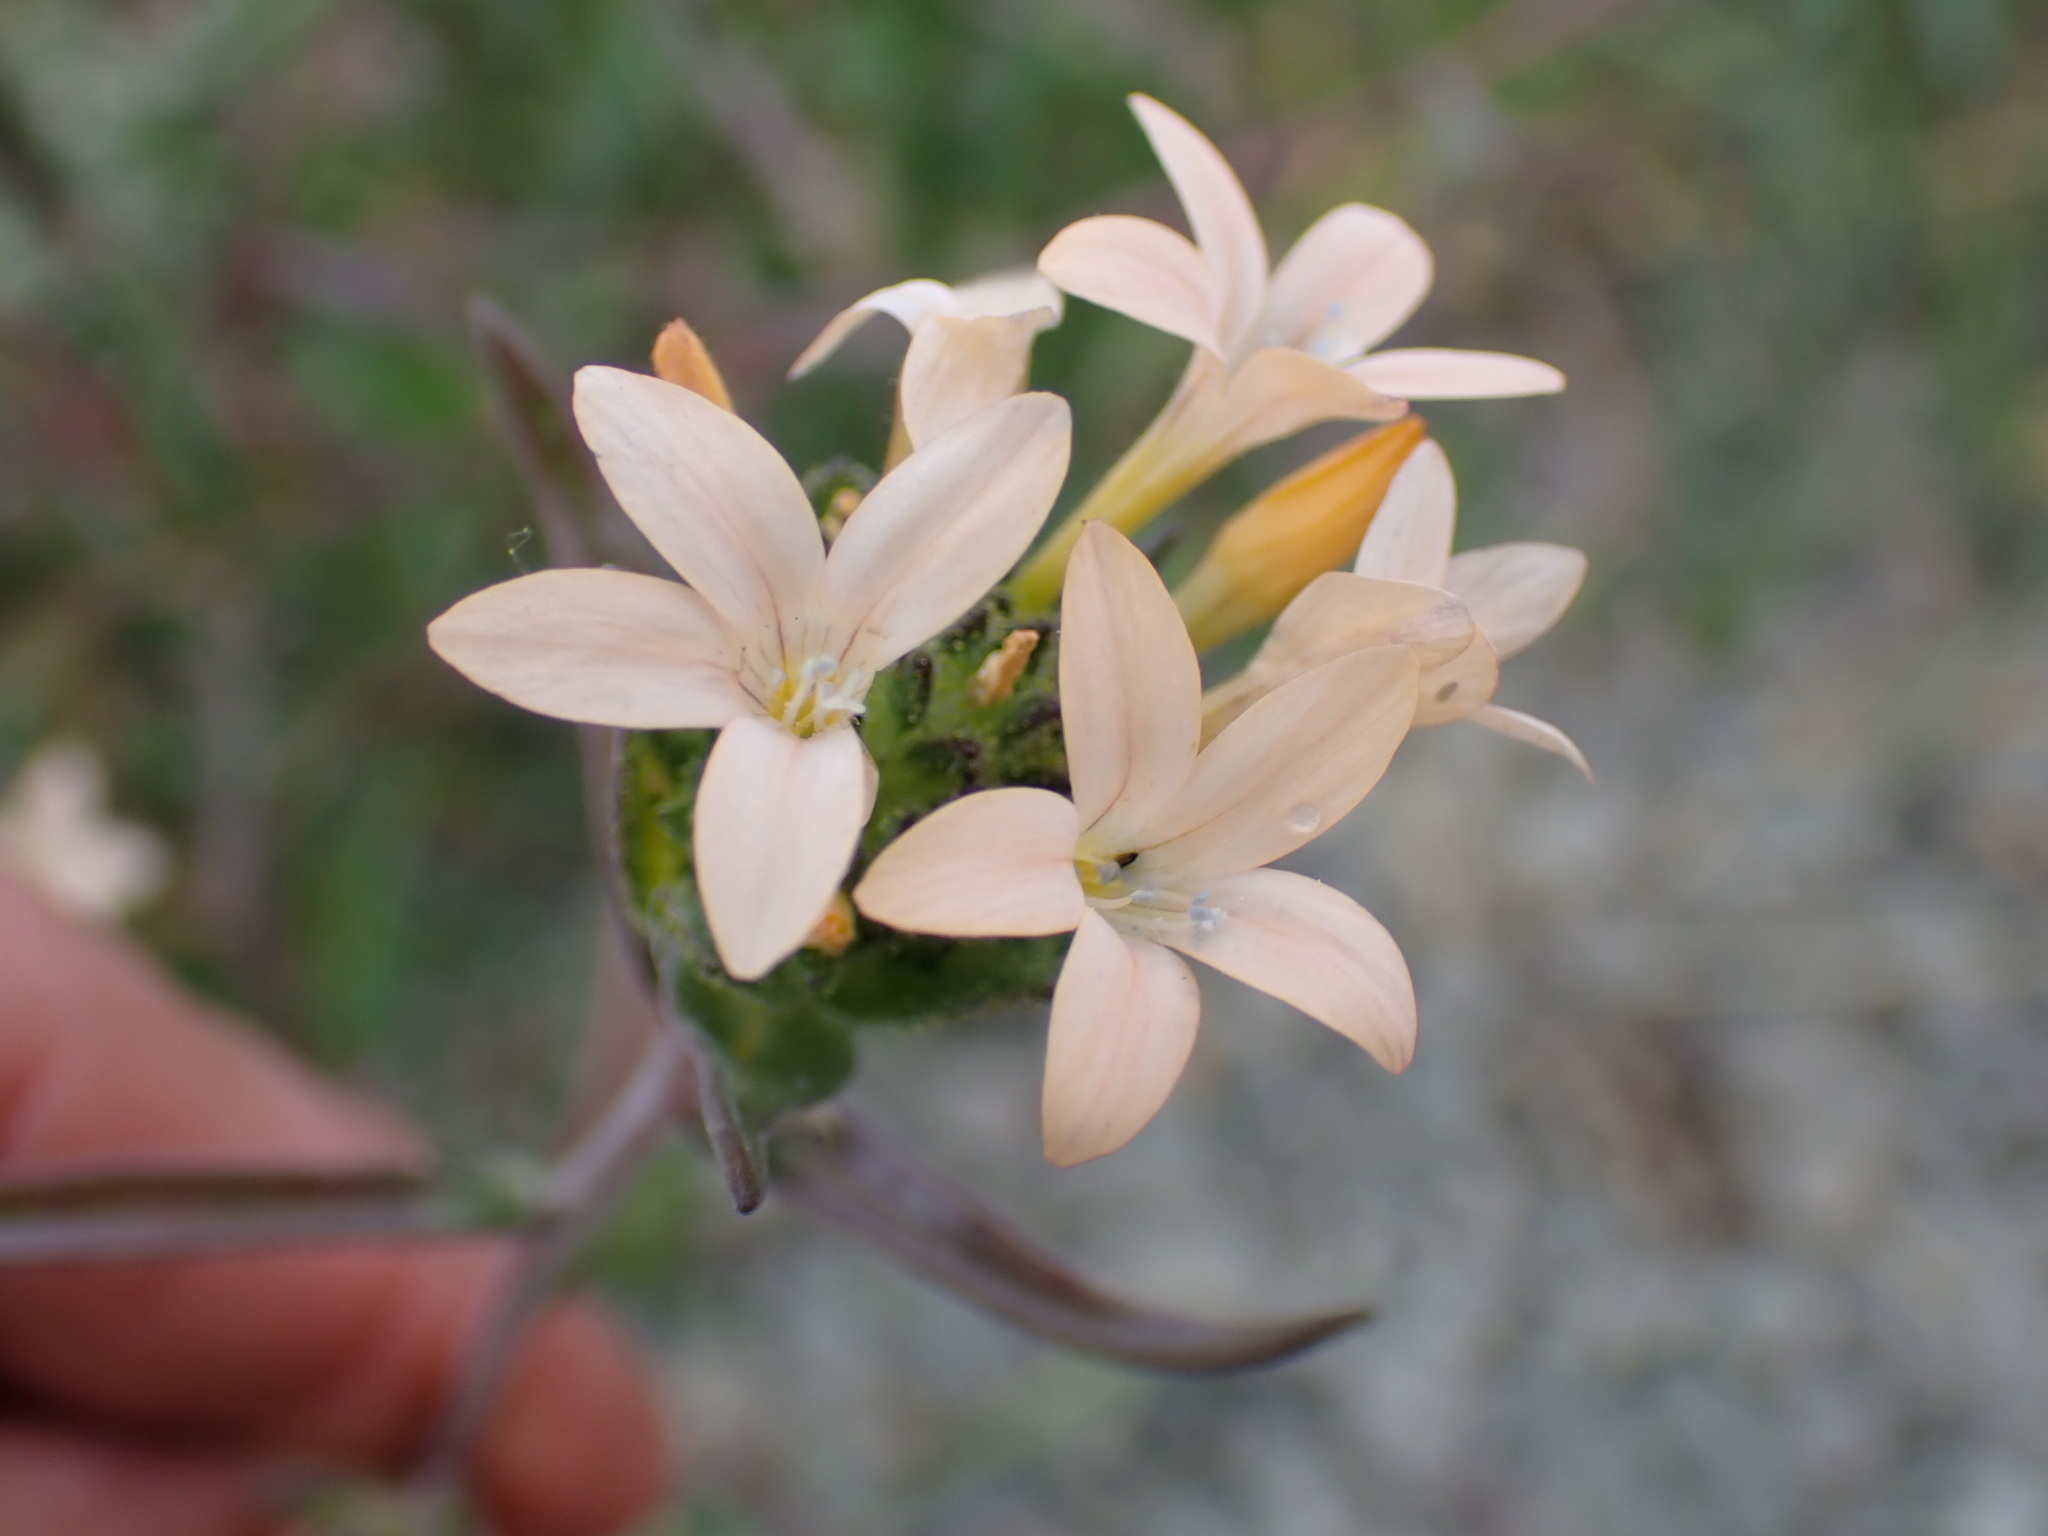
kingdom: Plantae
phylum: Tracheophyta
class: Magnoliopsida
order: Ericales
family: Polemoniaceae
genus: Collomia
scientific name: Collomia grandiflora
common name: California strawflower
